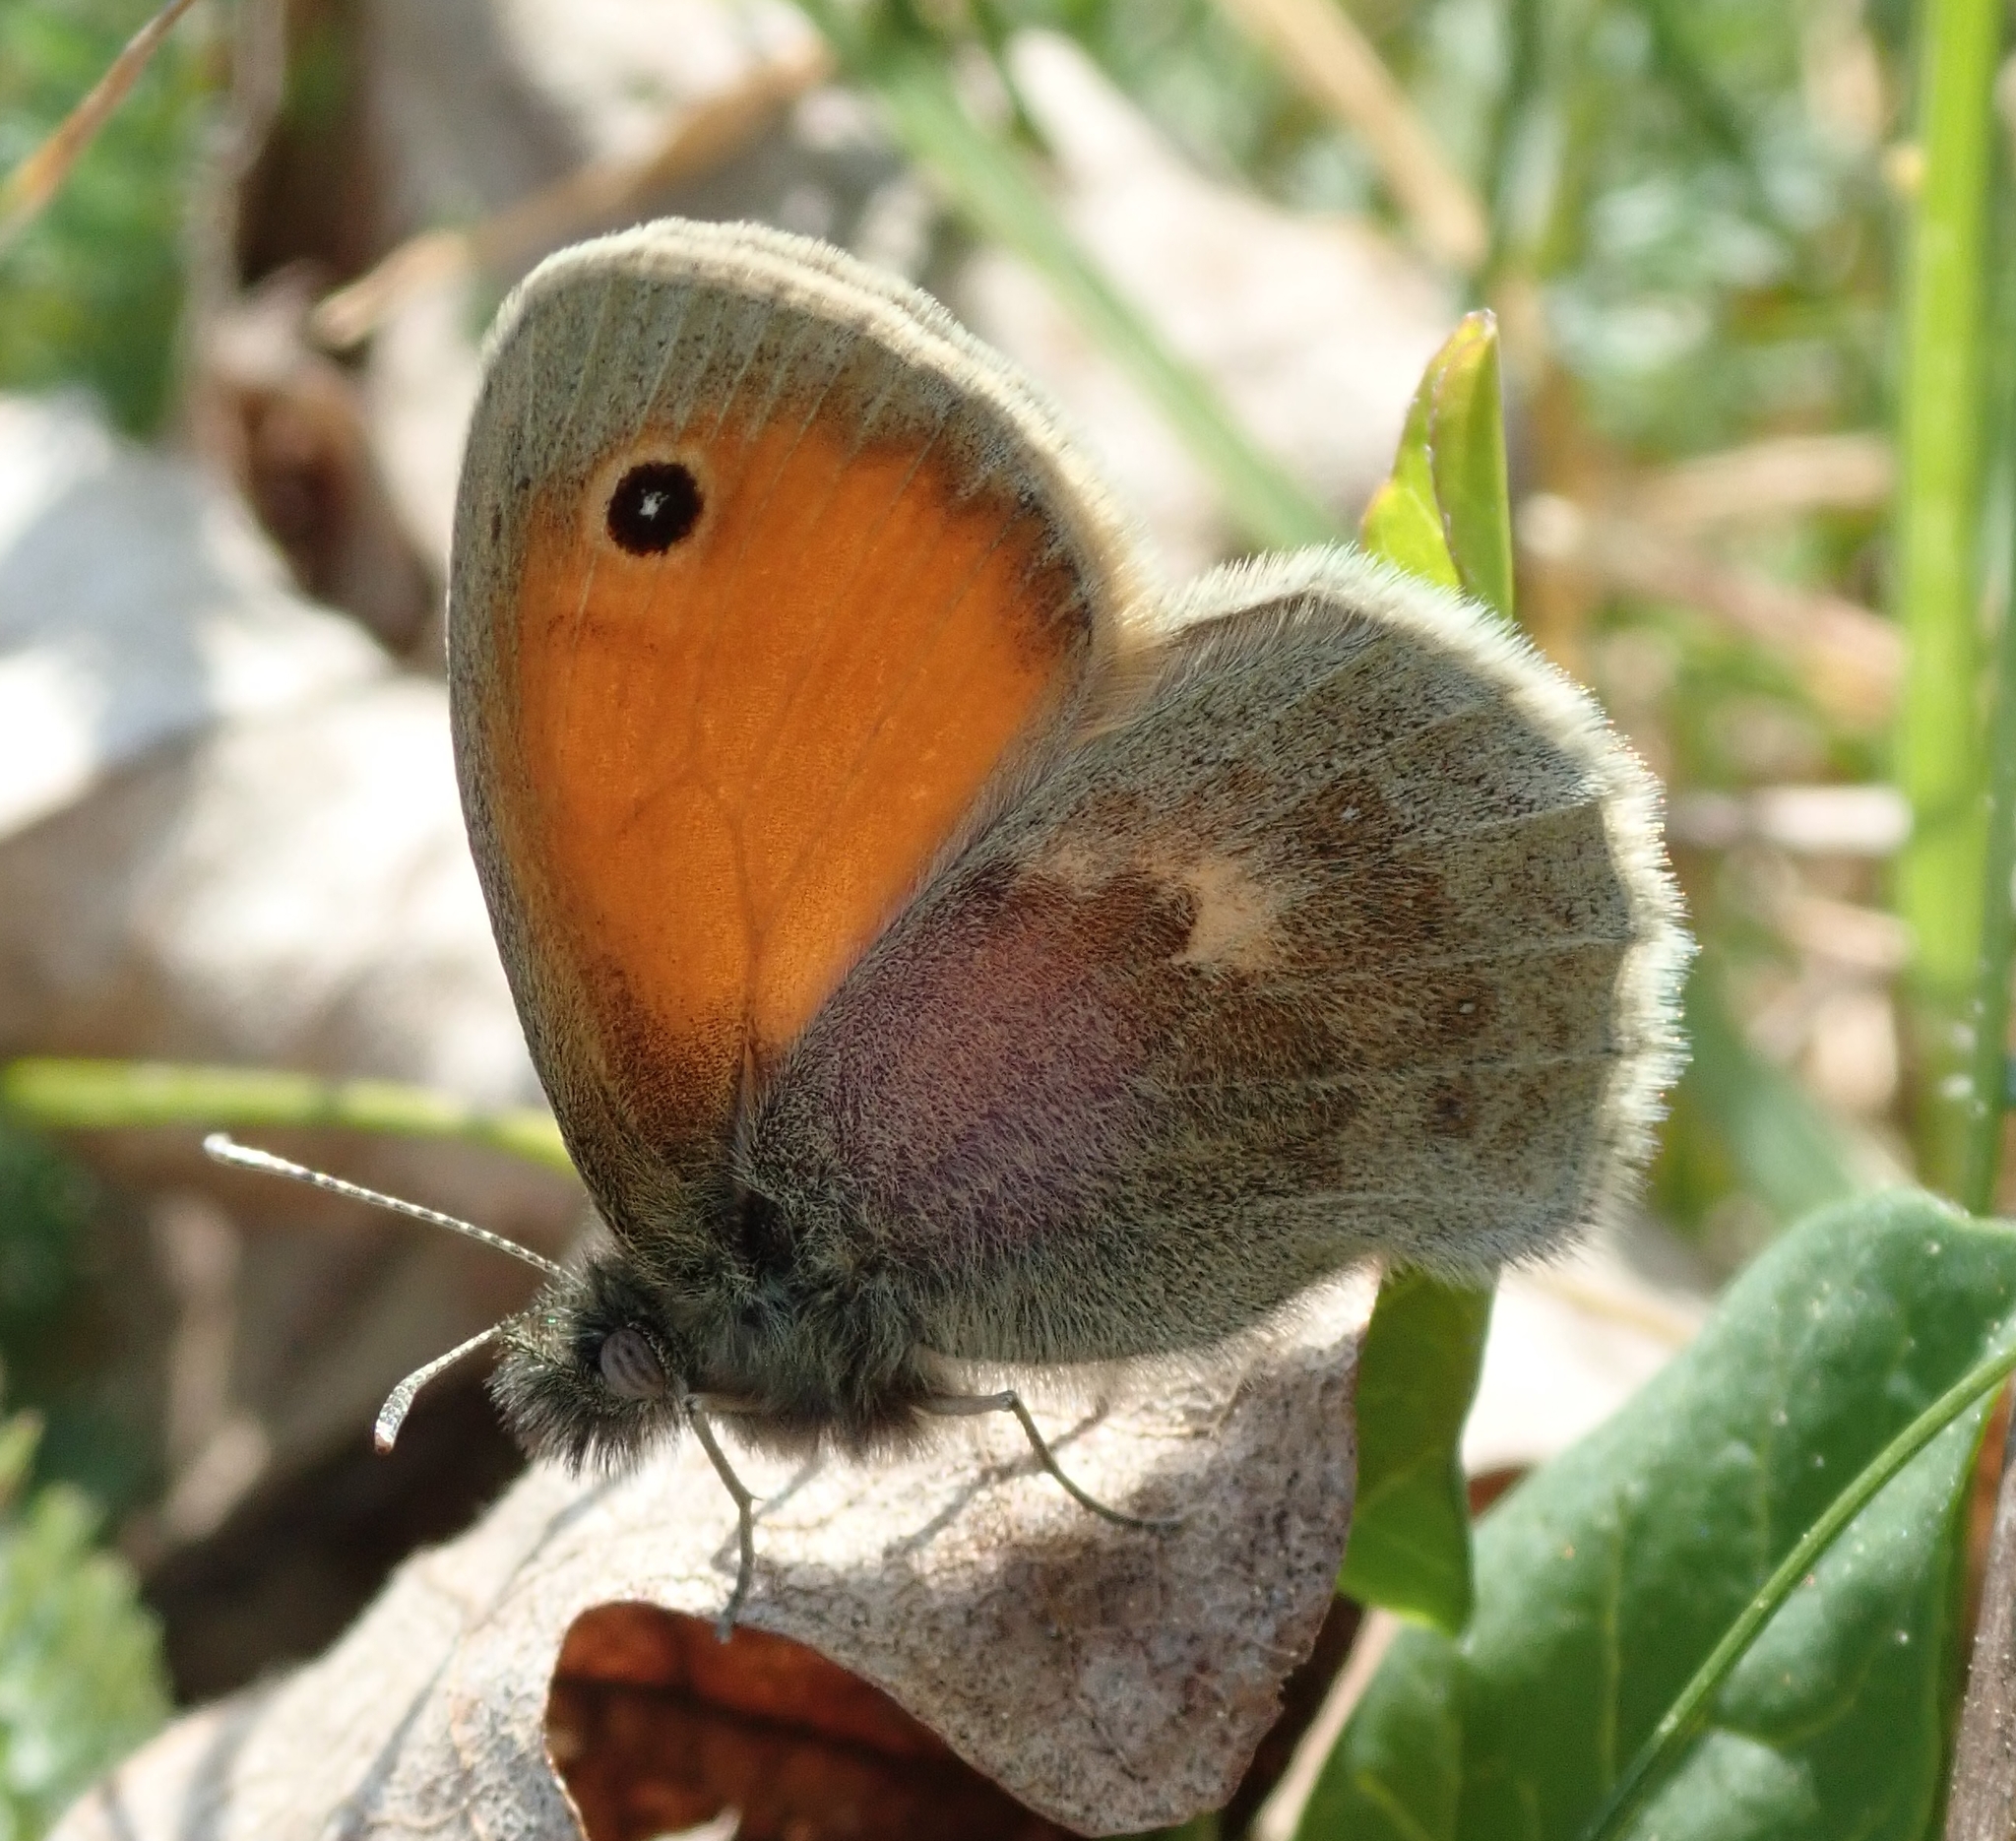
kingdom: Animalia
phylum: Arthropoda
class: Insecta
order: Lepidoptera
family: Nymphalidae
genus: Coenonympha
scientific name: Coenonympha pamphilus
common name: Small heath
